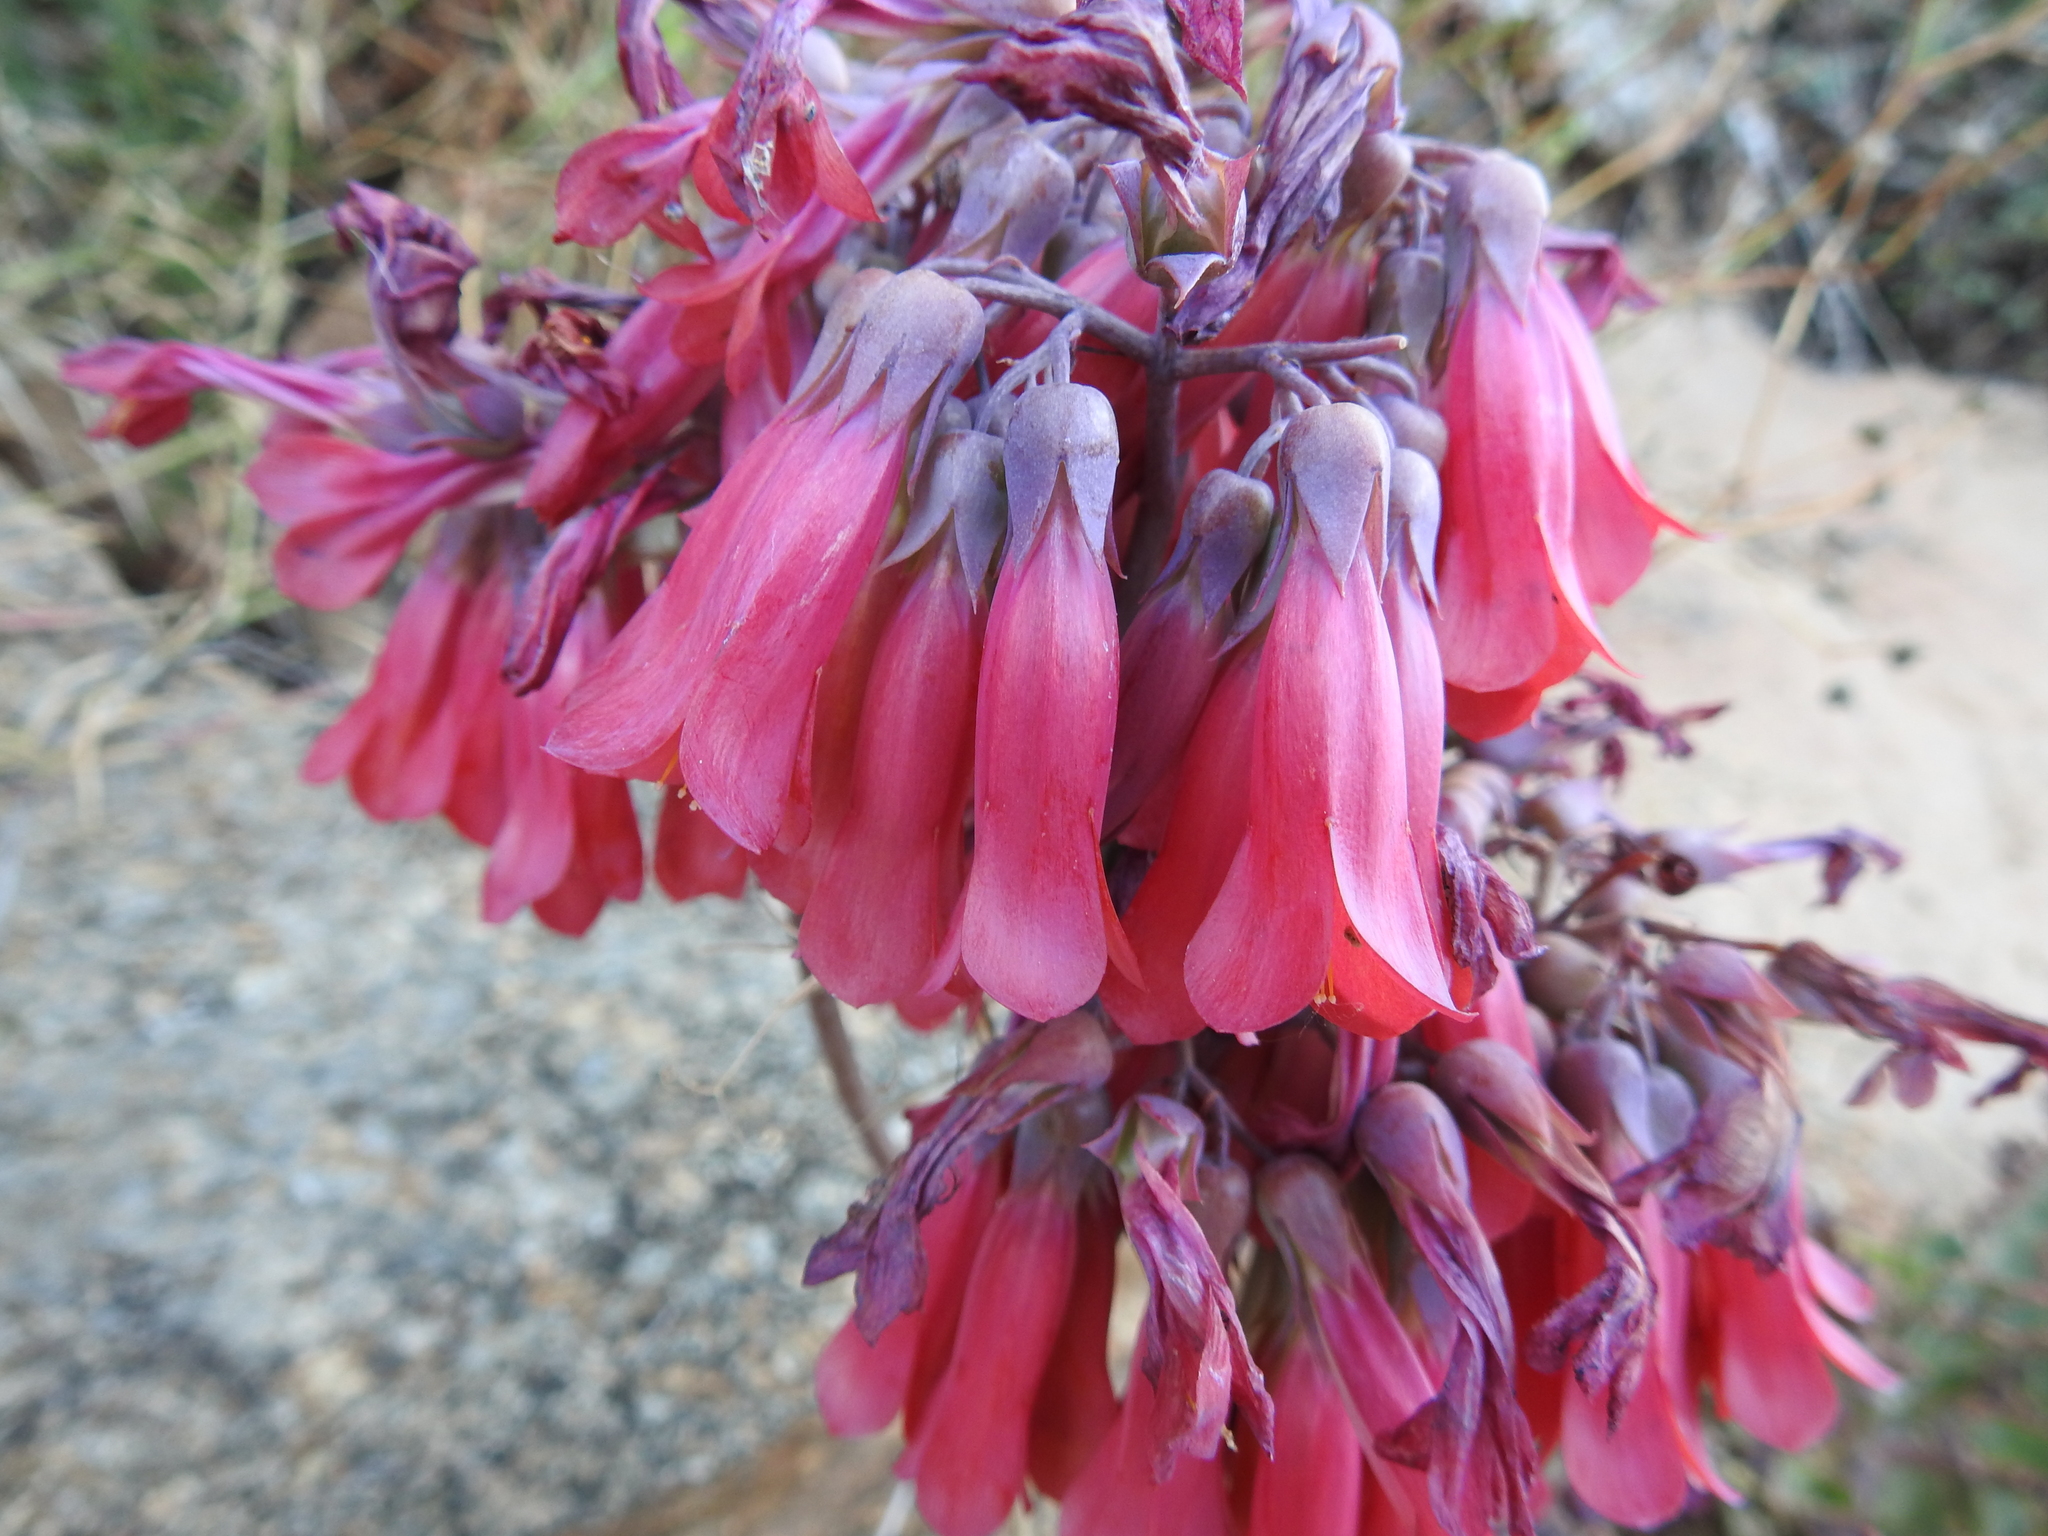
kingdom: Plantae
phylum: Tracheophyta
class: Magnoliopsida
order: Saxifragales
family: Crassulaceae
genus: Kalanchoe
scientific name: Kalanchoe houghtonii
